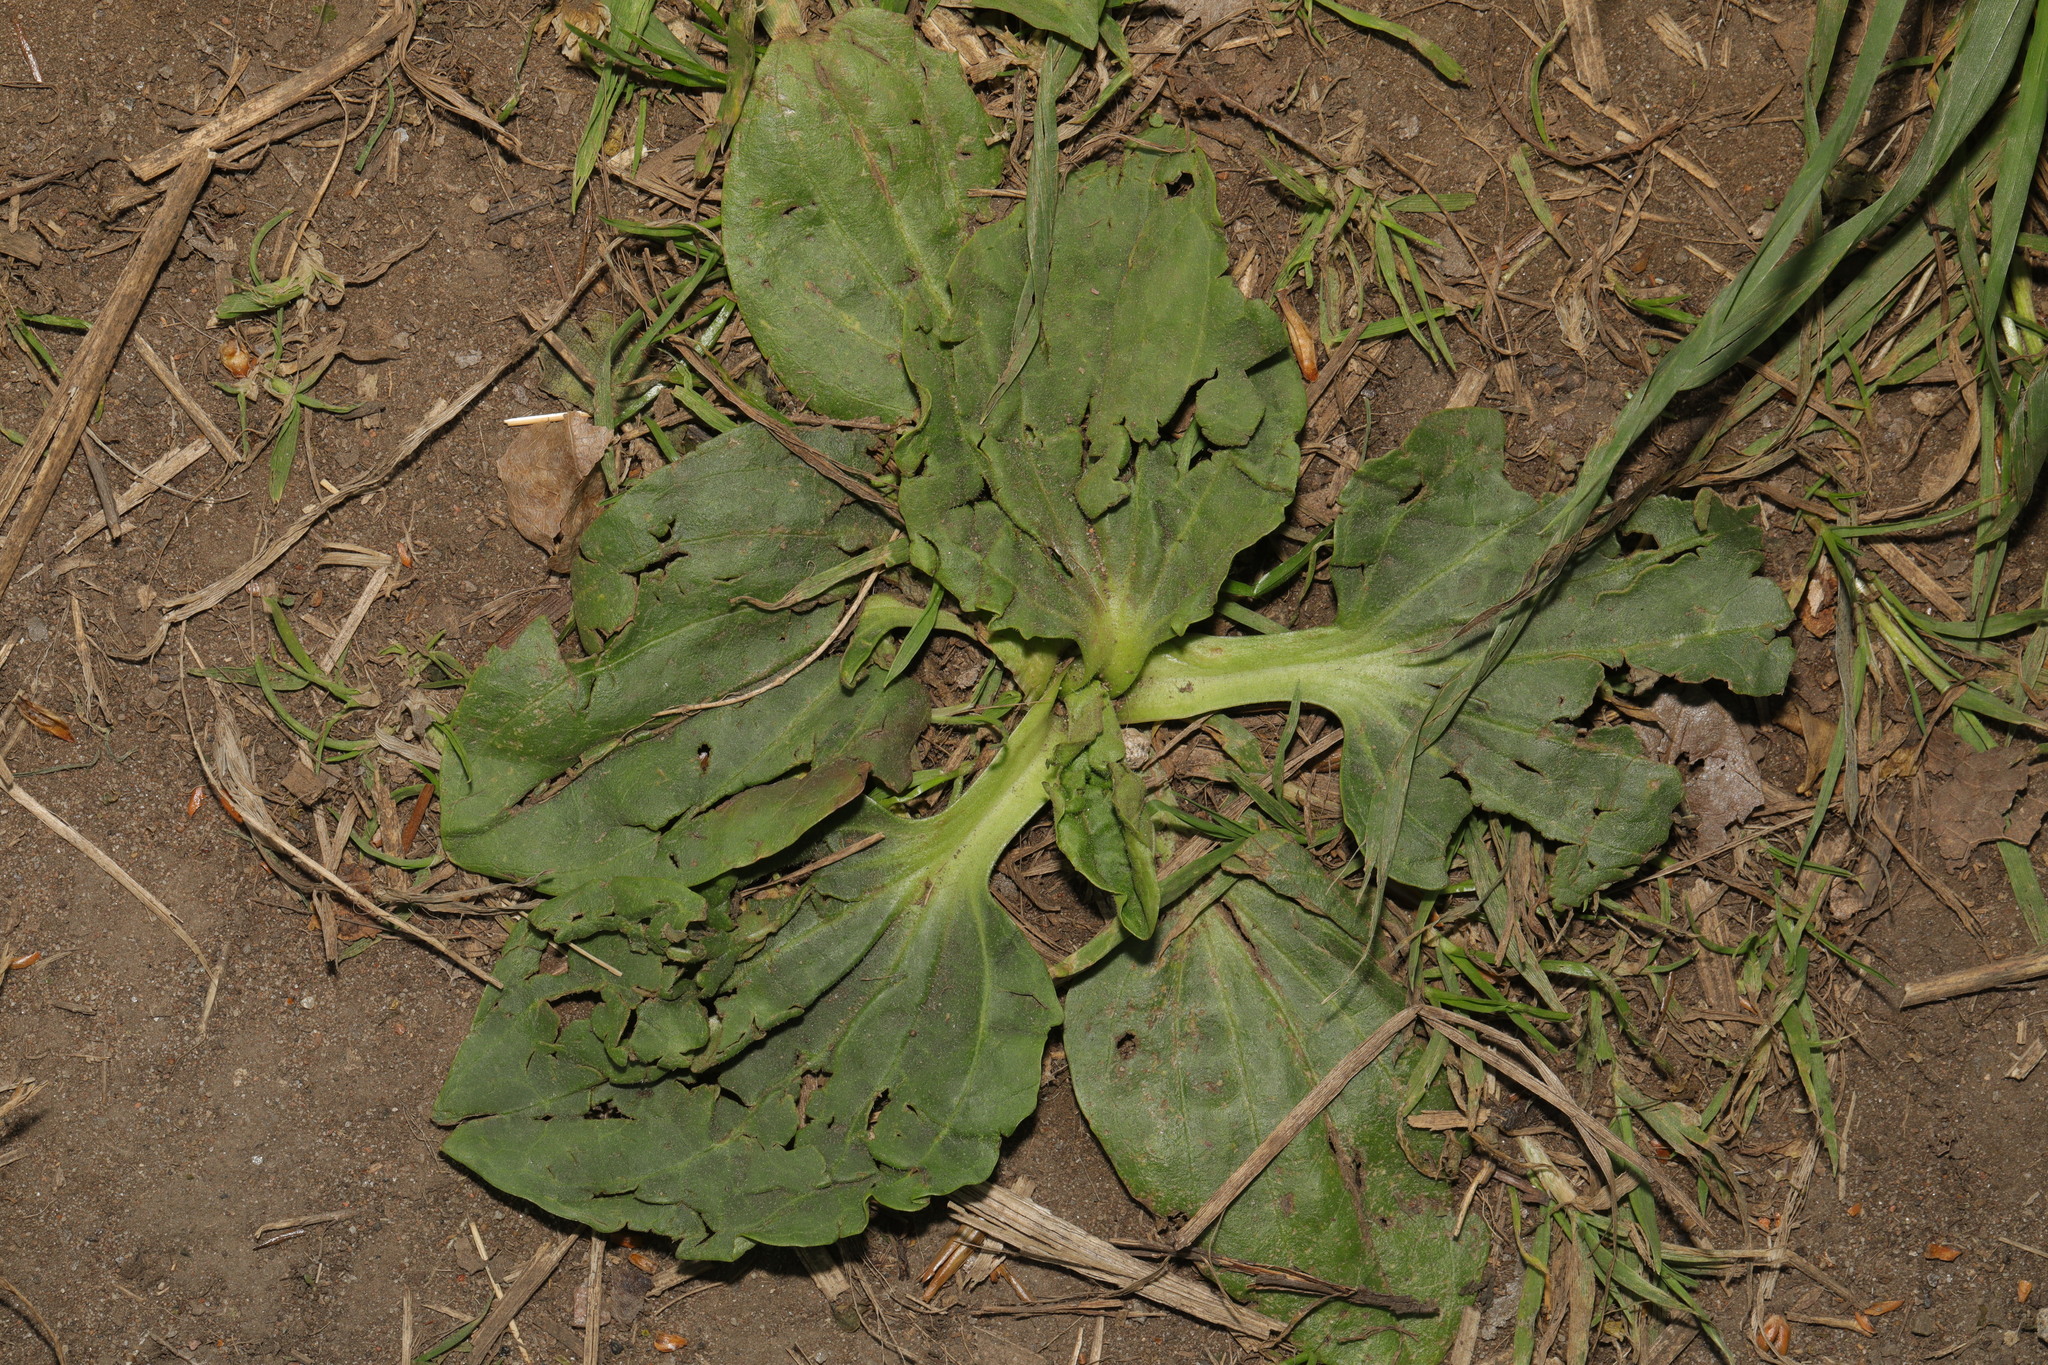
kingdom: Plantae
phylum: Tracheophyta
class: Magnoliopsida
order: Lamiales
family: Plantaginaceae
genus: Plantago
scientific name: Plantago major
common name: Common plantain
